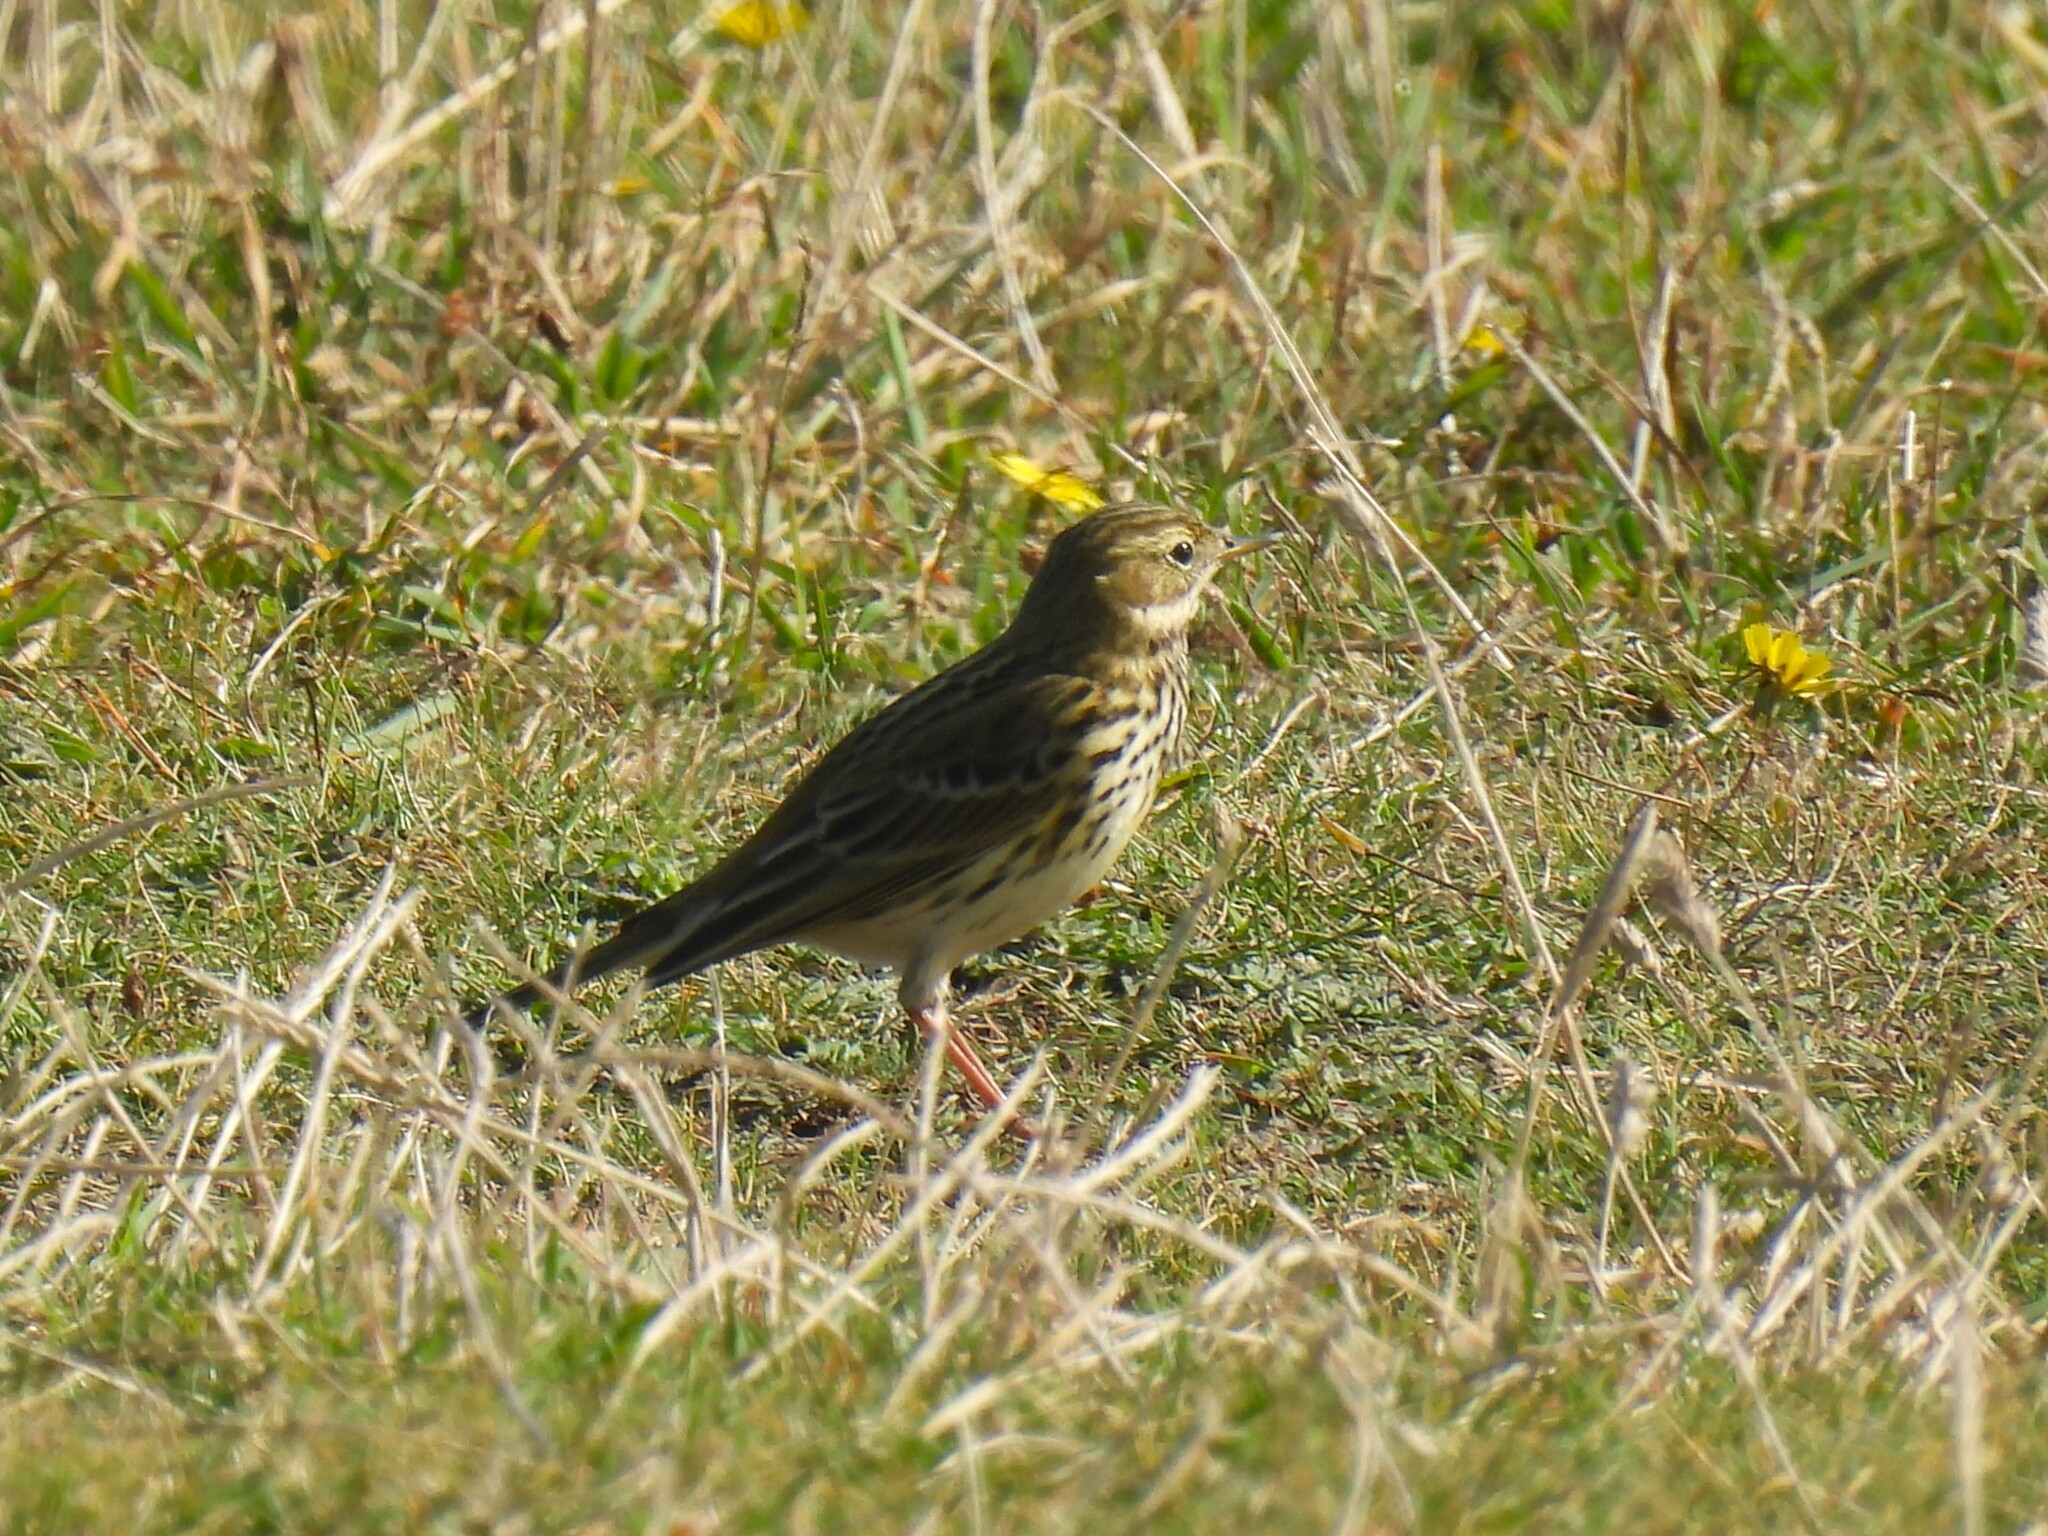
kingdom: Animalia
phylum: Chordata
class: Aves
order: Passeriformes
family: Motacillidae
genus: Anthus
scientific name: Anthus pratensis
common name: Meadow pipit
